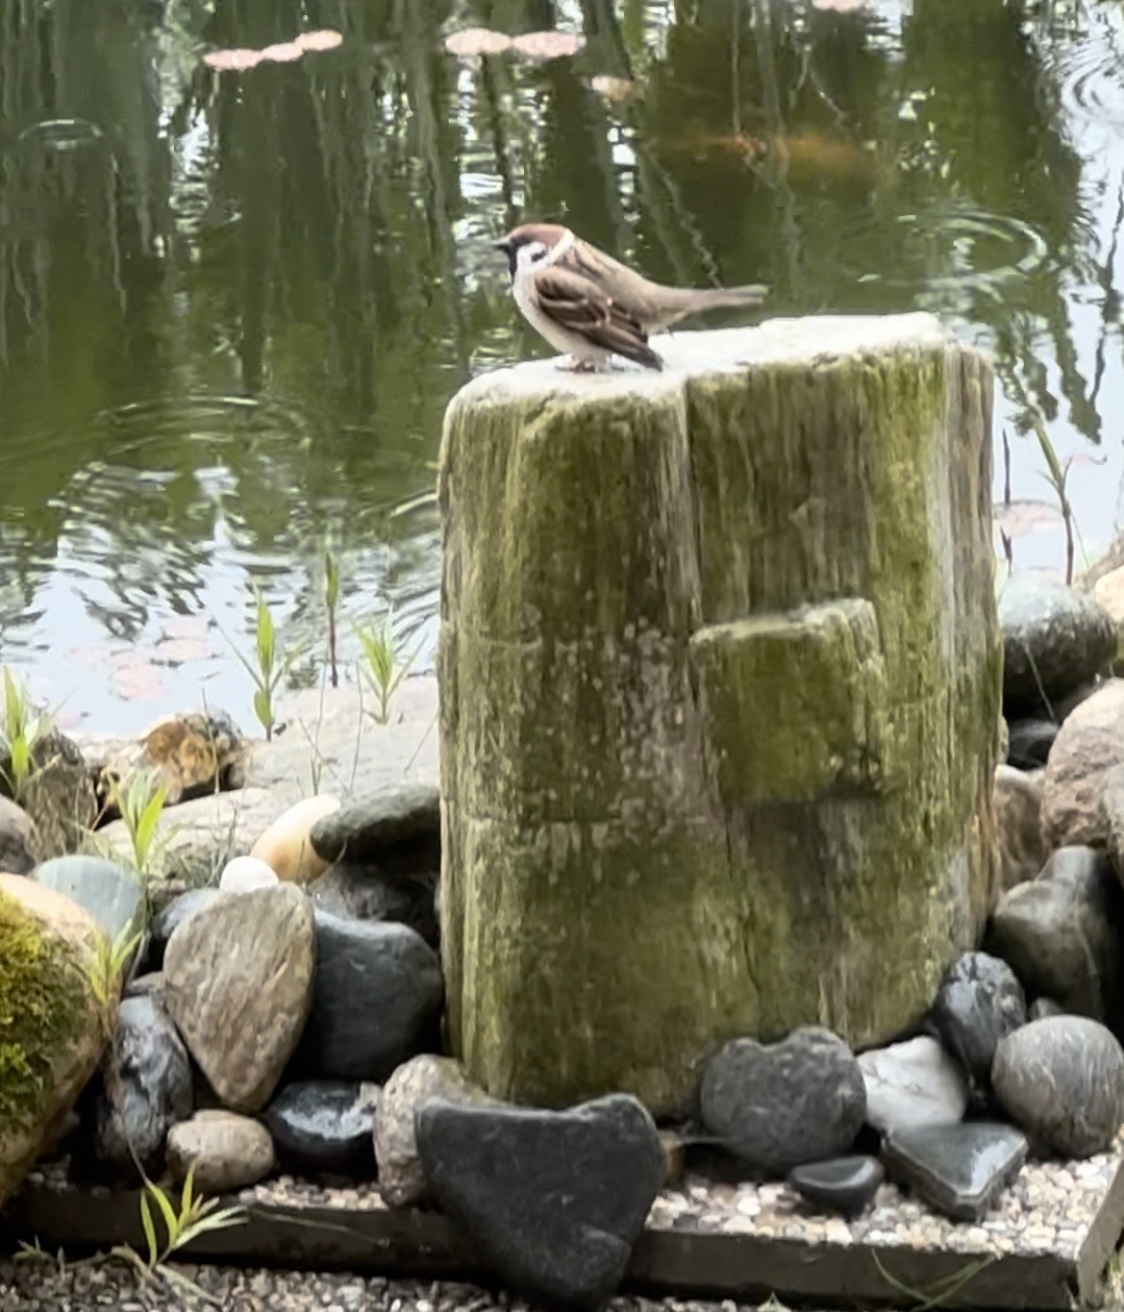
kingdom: Animalia
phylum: Chordata
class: Aves
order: Passeriformes
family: Passeridae
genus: Passer
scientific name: Passer montanus
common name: Eurasian tree sparrow
